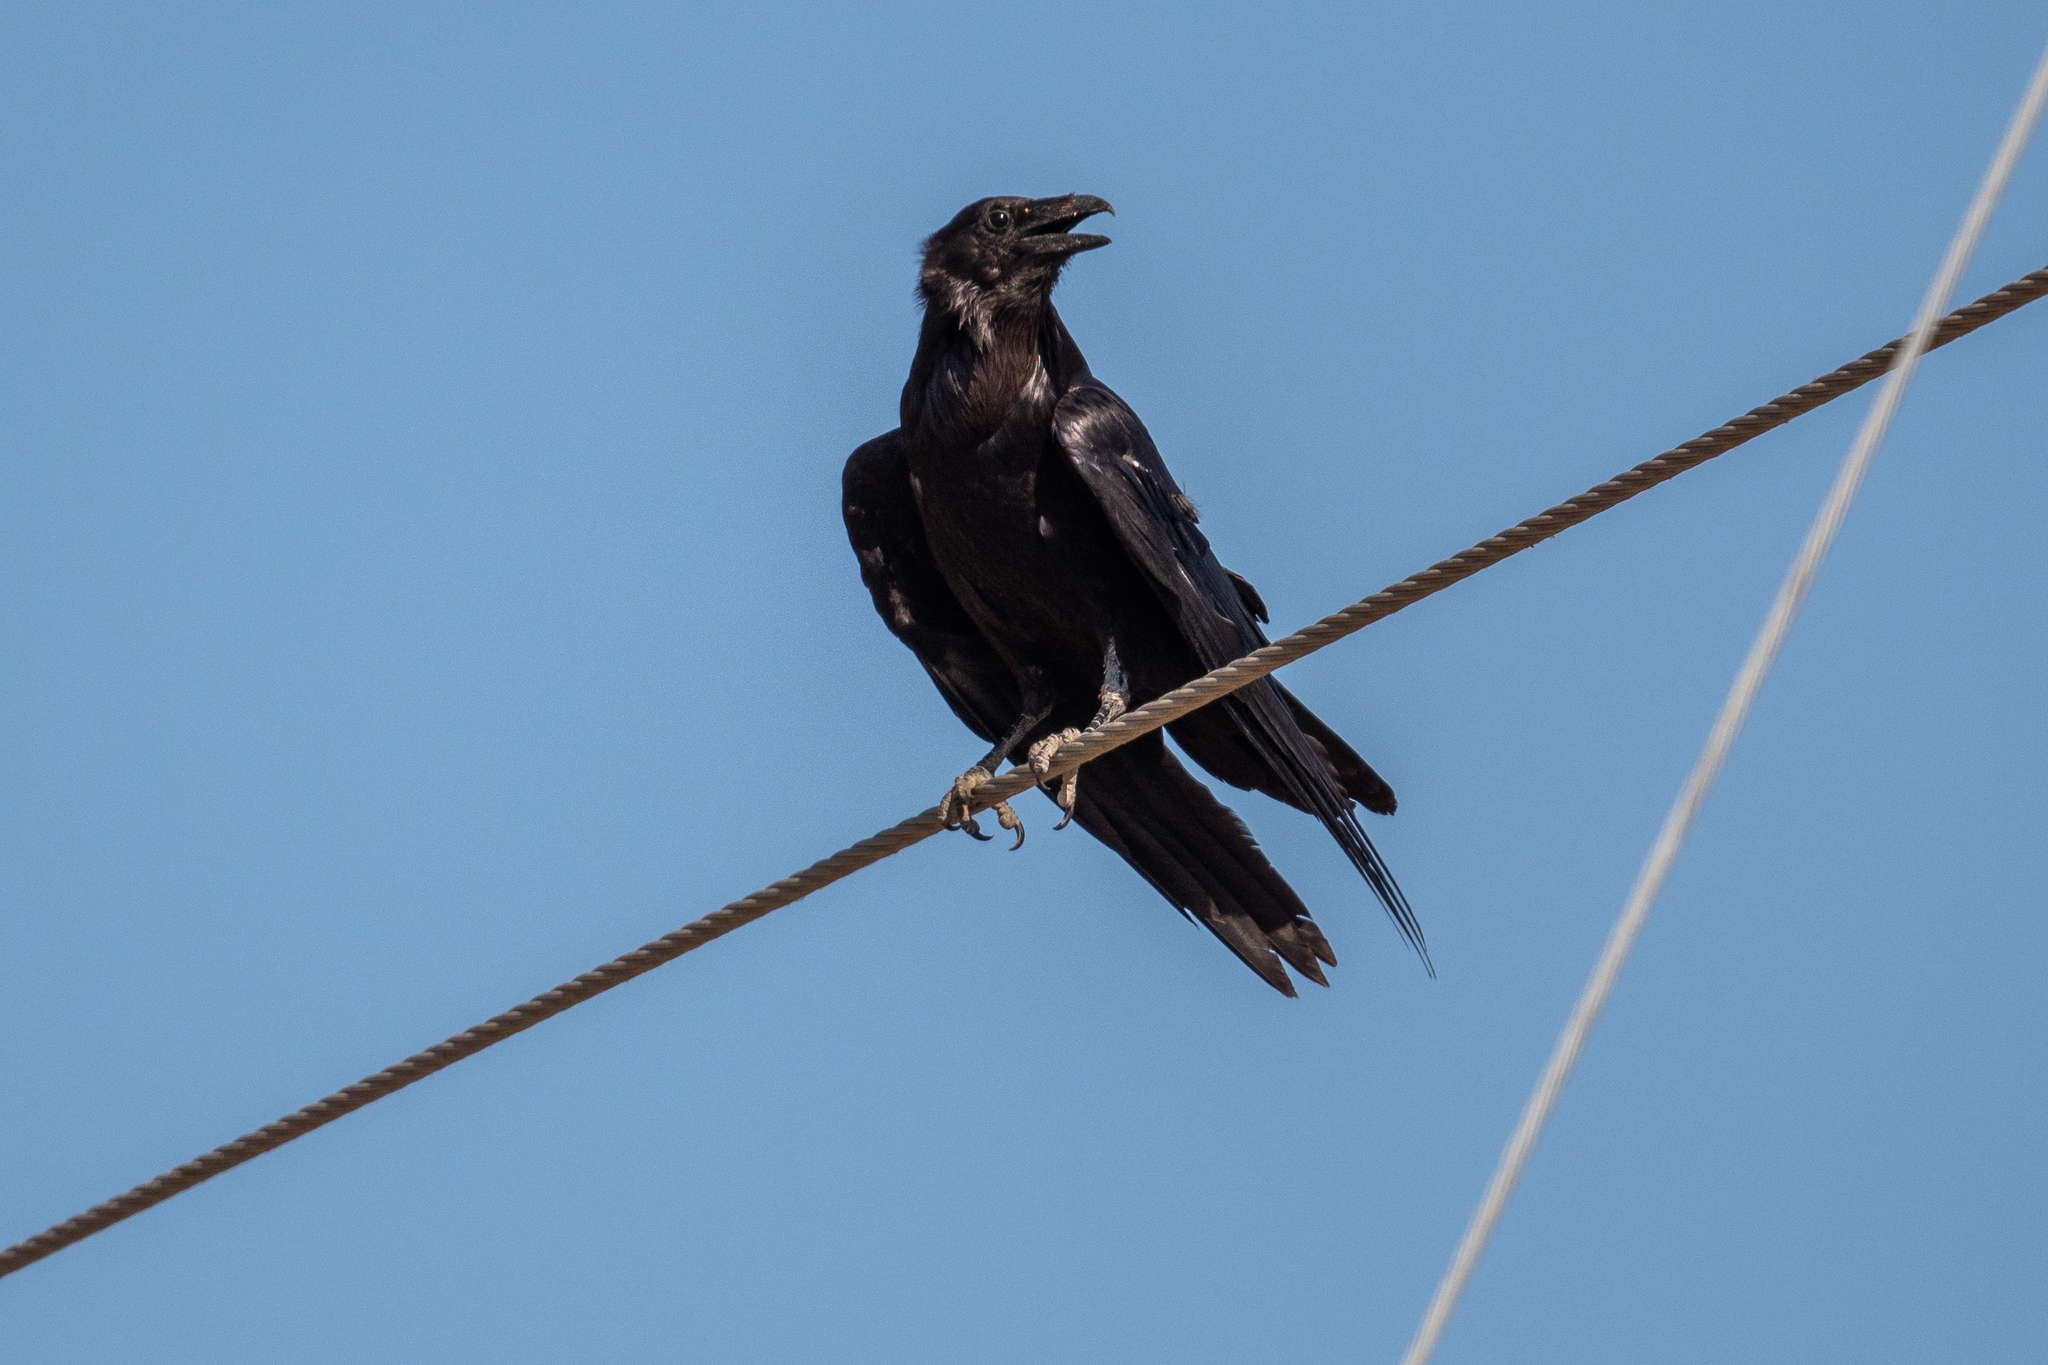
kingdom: Animalia
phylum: Chordata
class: Aves
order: Passeriformes
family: Corvidae
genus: Corvus
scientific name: Corvus corax
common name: Common raven
